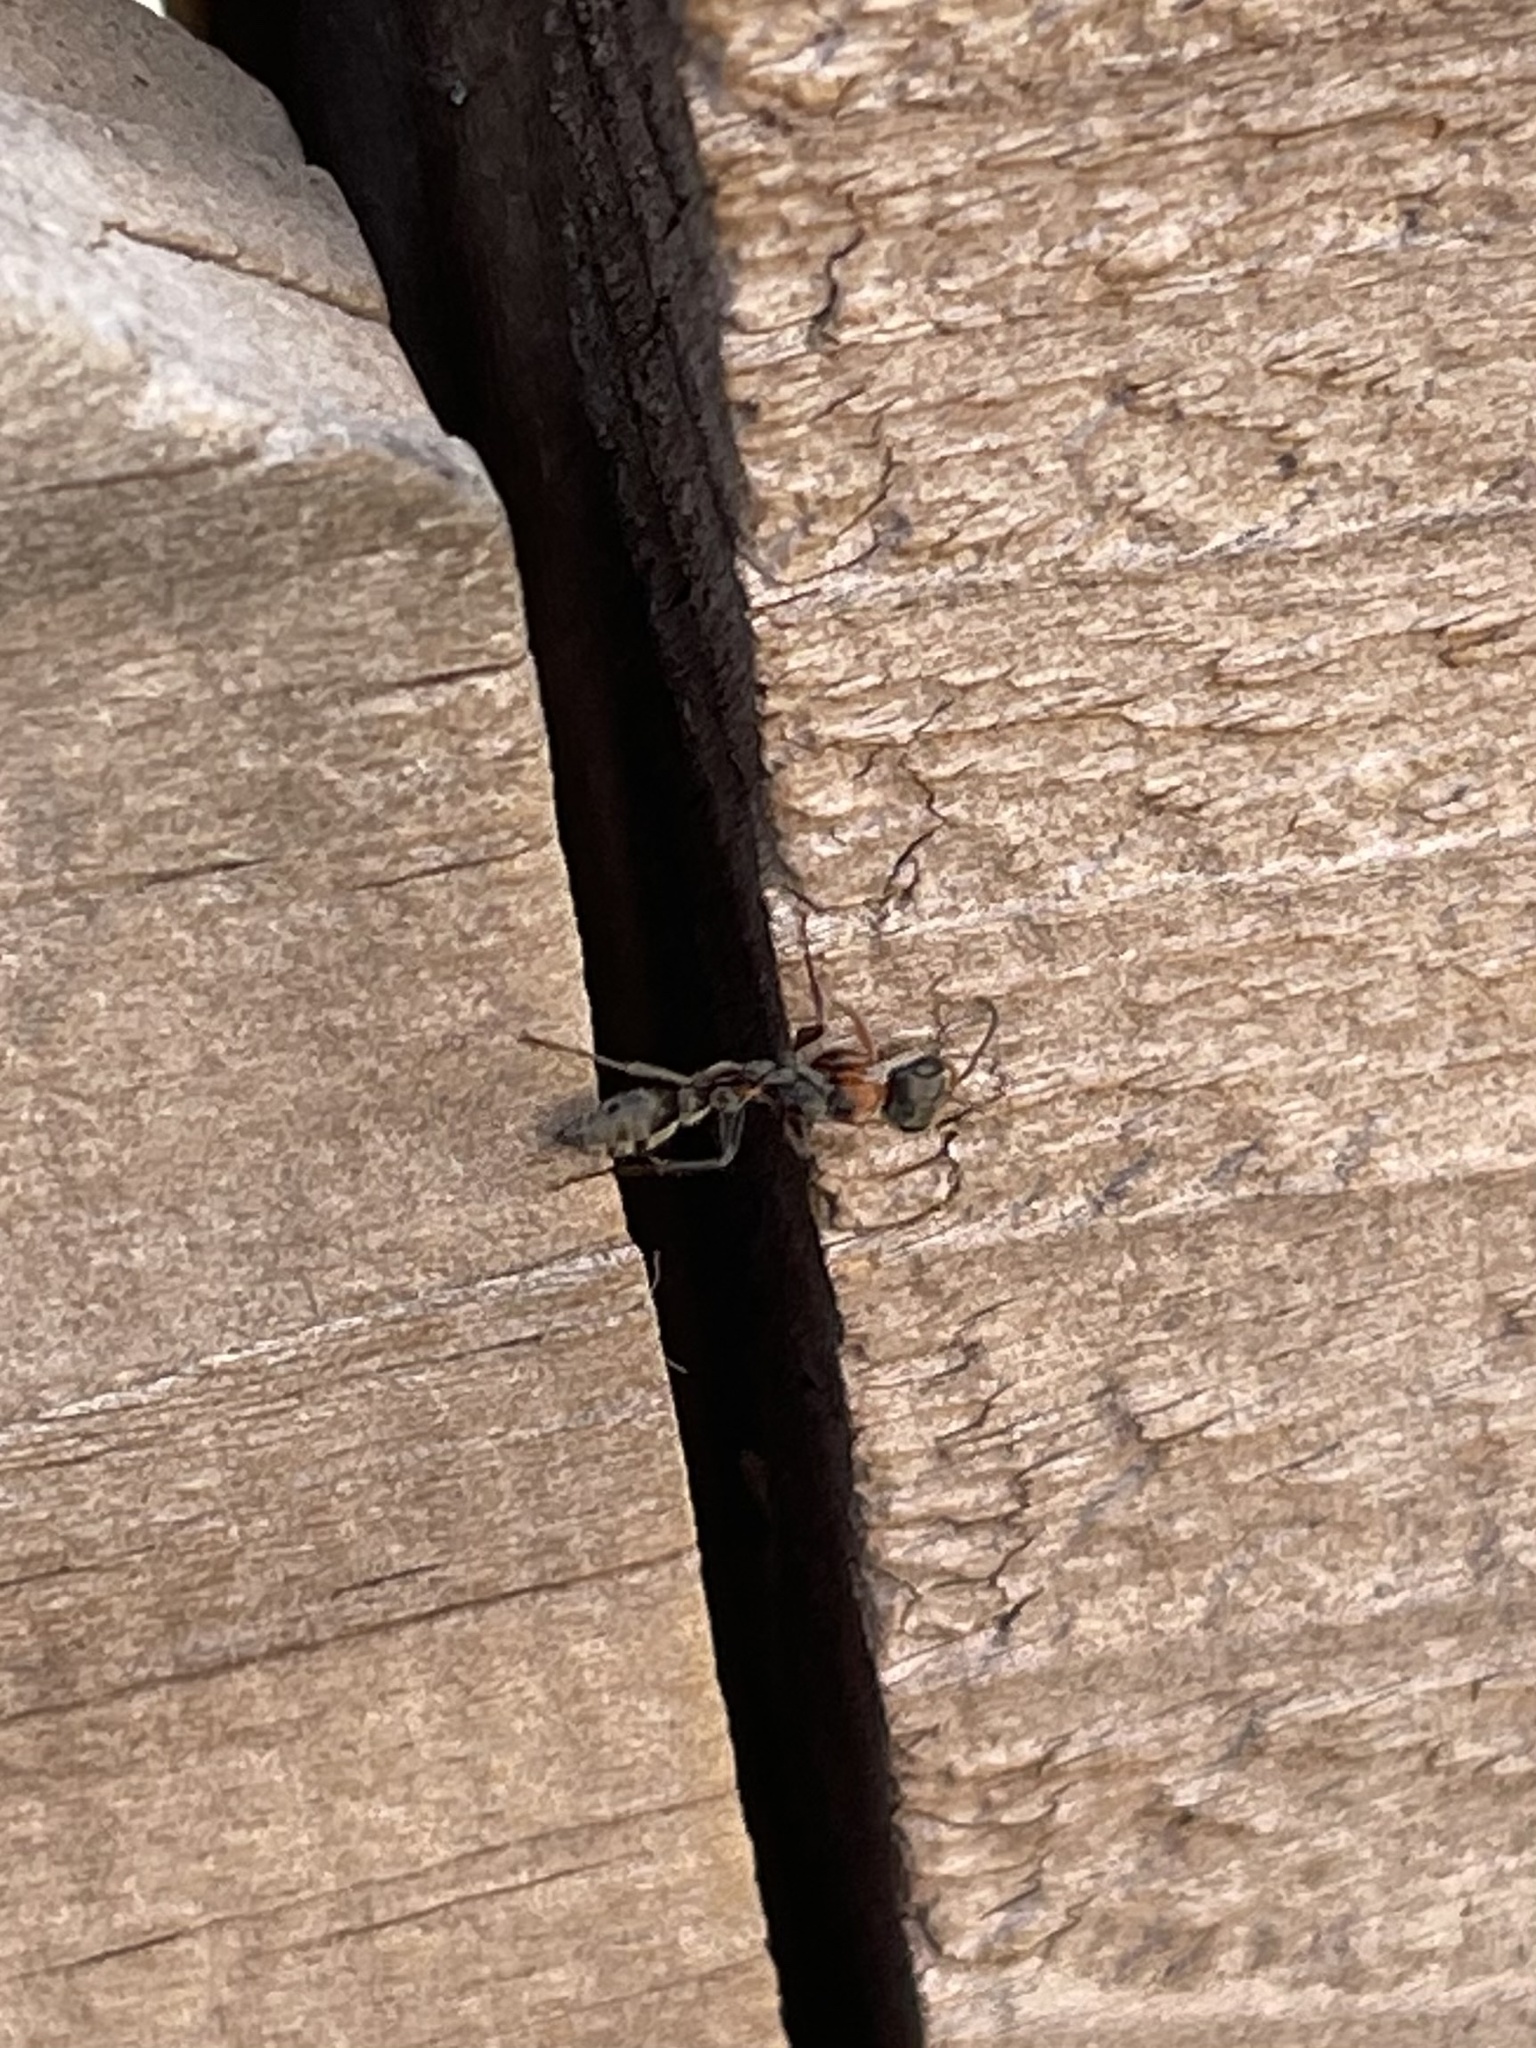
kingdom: Animalia
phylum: Arthropoda
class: Insecta
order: Hymenoptera
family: Formicidae
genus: Pseudomyrmex
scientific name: Pseudomyrmex gracilis
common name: Graceful twig ant
